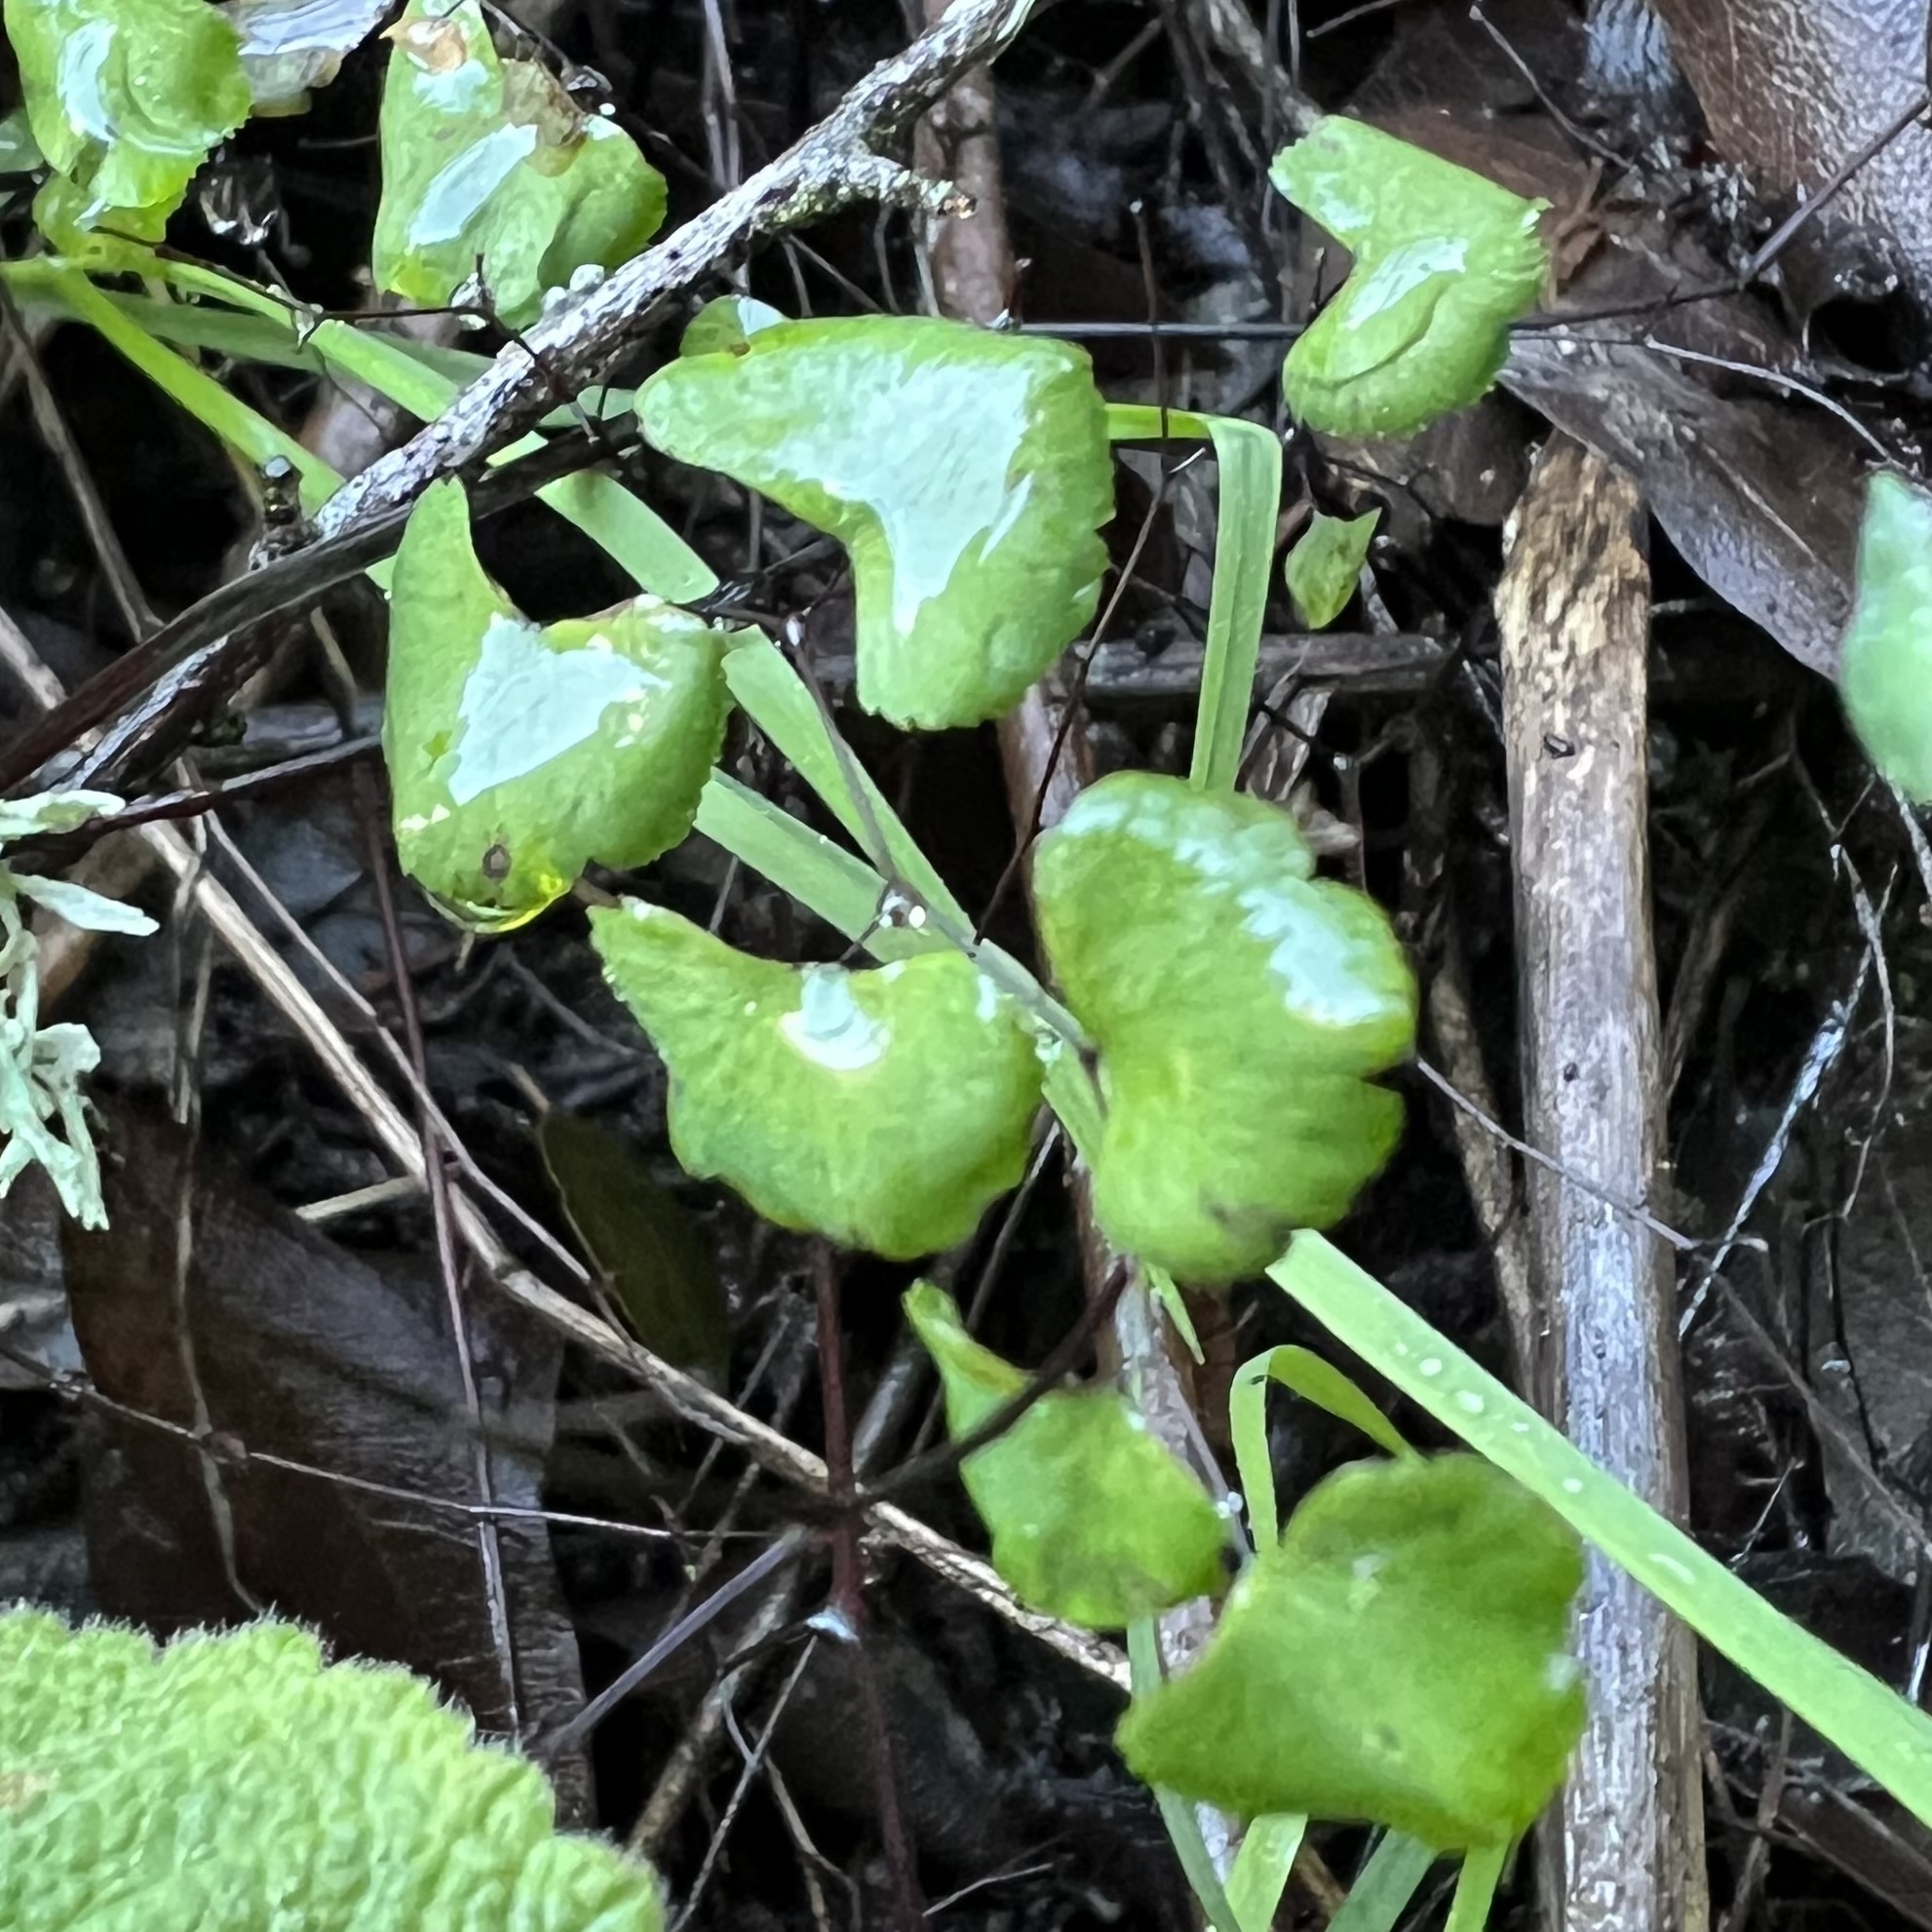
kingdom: Plantae
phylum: Tracheophyta
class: Polypodiopsida
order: Polypodiales
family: Pteridaceae
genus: Adiantum
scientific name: Adiantum jordanii
